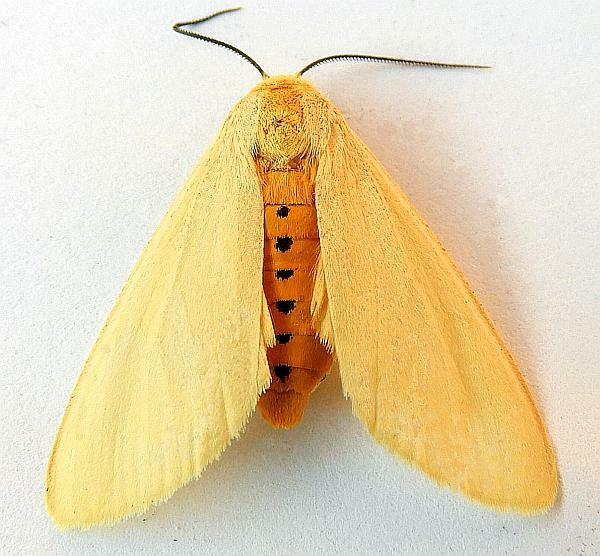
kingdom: Animalia
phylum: Arthropoda
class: Insecta
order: Lepidoptera
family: Erebidae
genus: Pareuchaetes
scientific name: Pareuchaetes insulata
